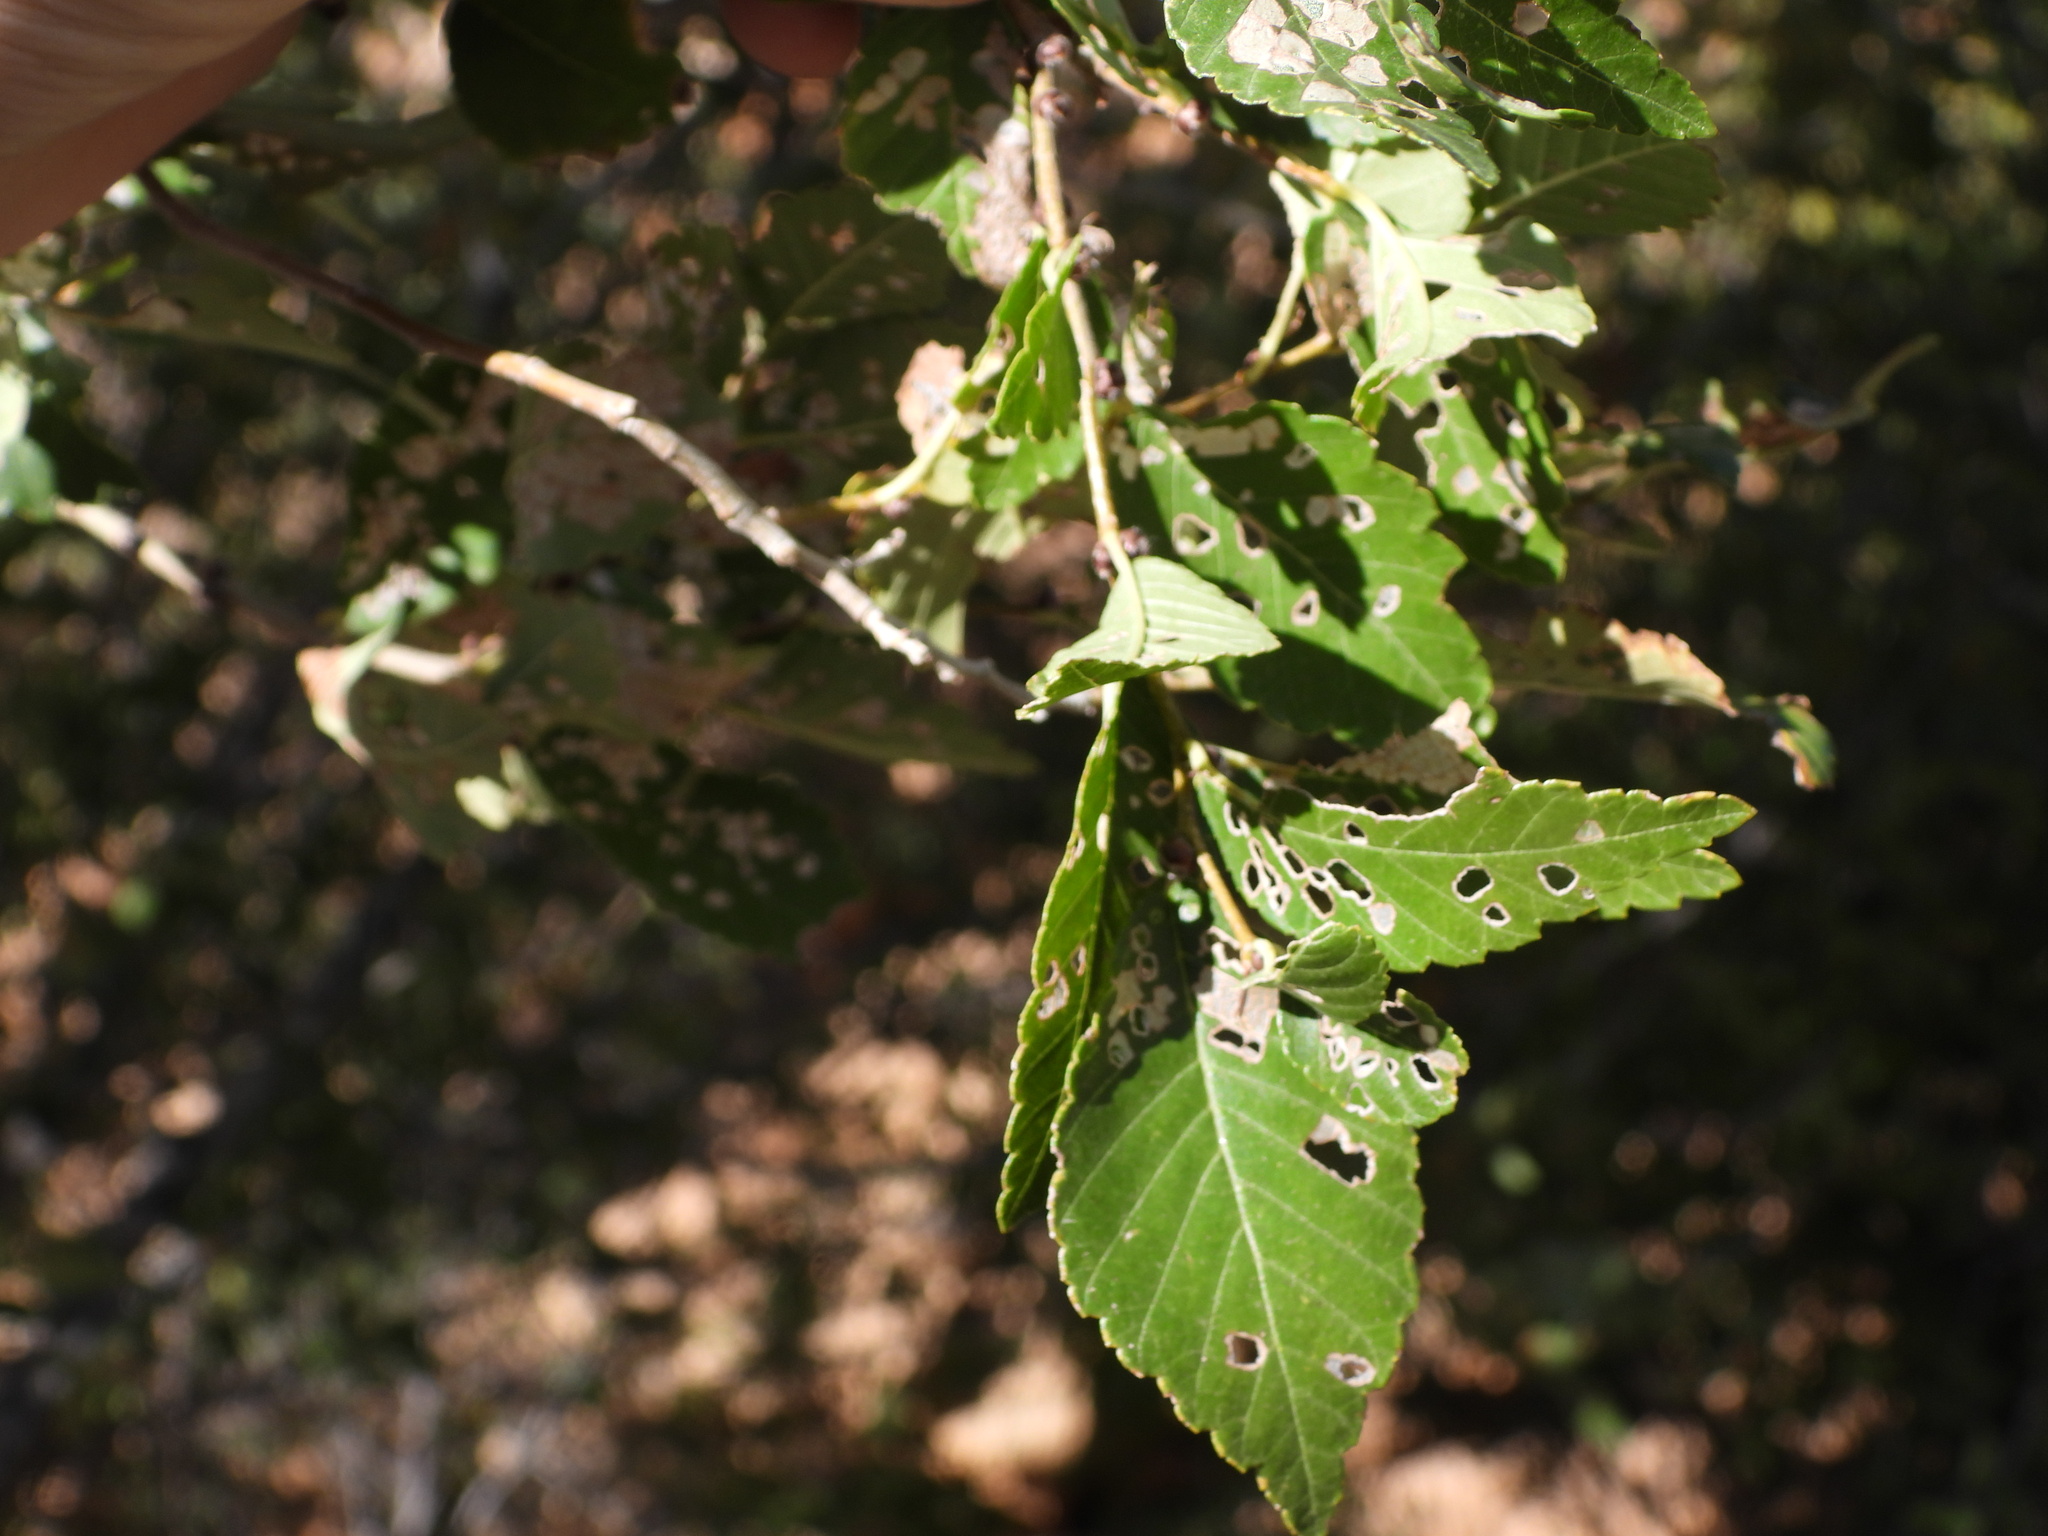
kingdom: Plantae
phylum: Tracheophyta
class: Magnoliopsida
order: Rosales
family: Ulmaceae
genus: Ulmus
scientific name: Ulmus pumila
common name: Siberian elm
